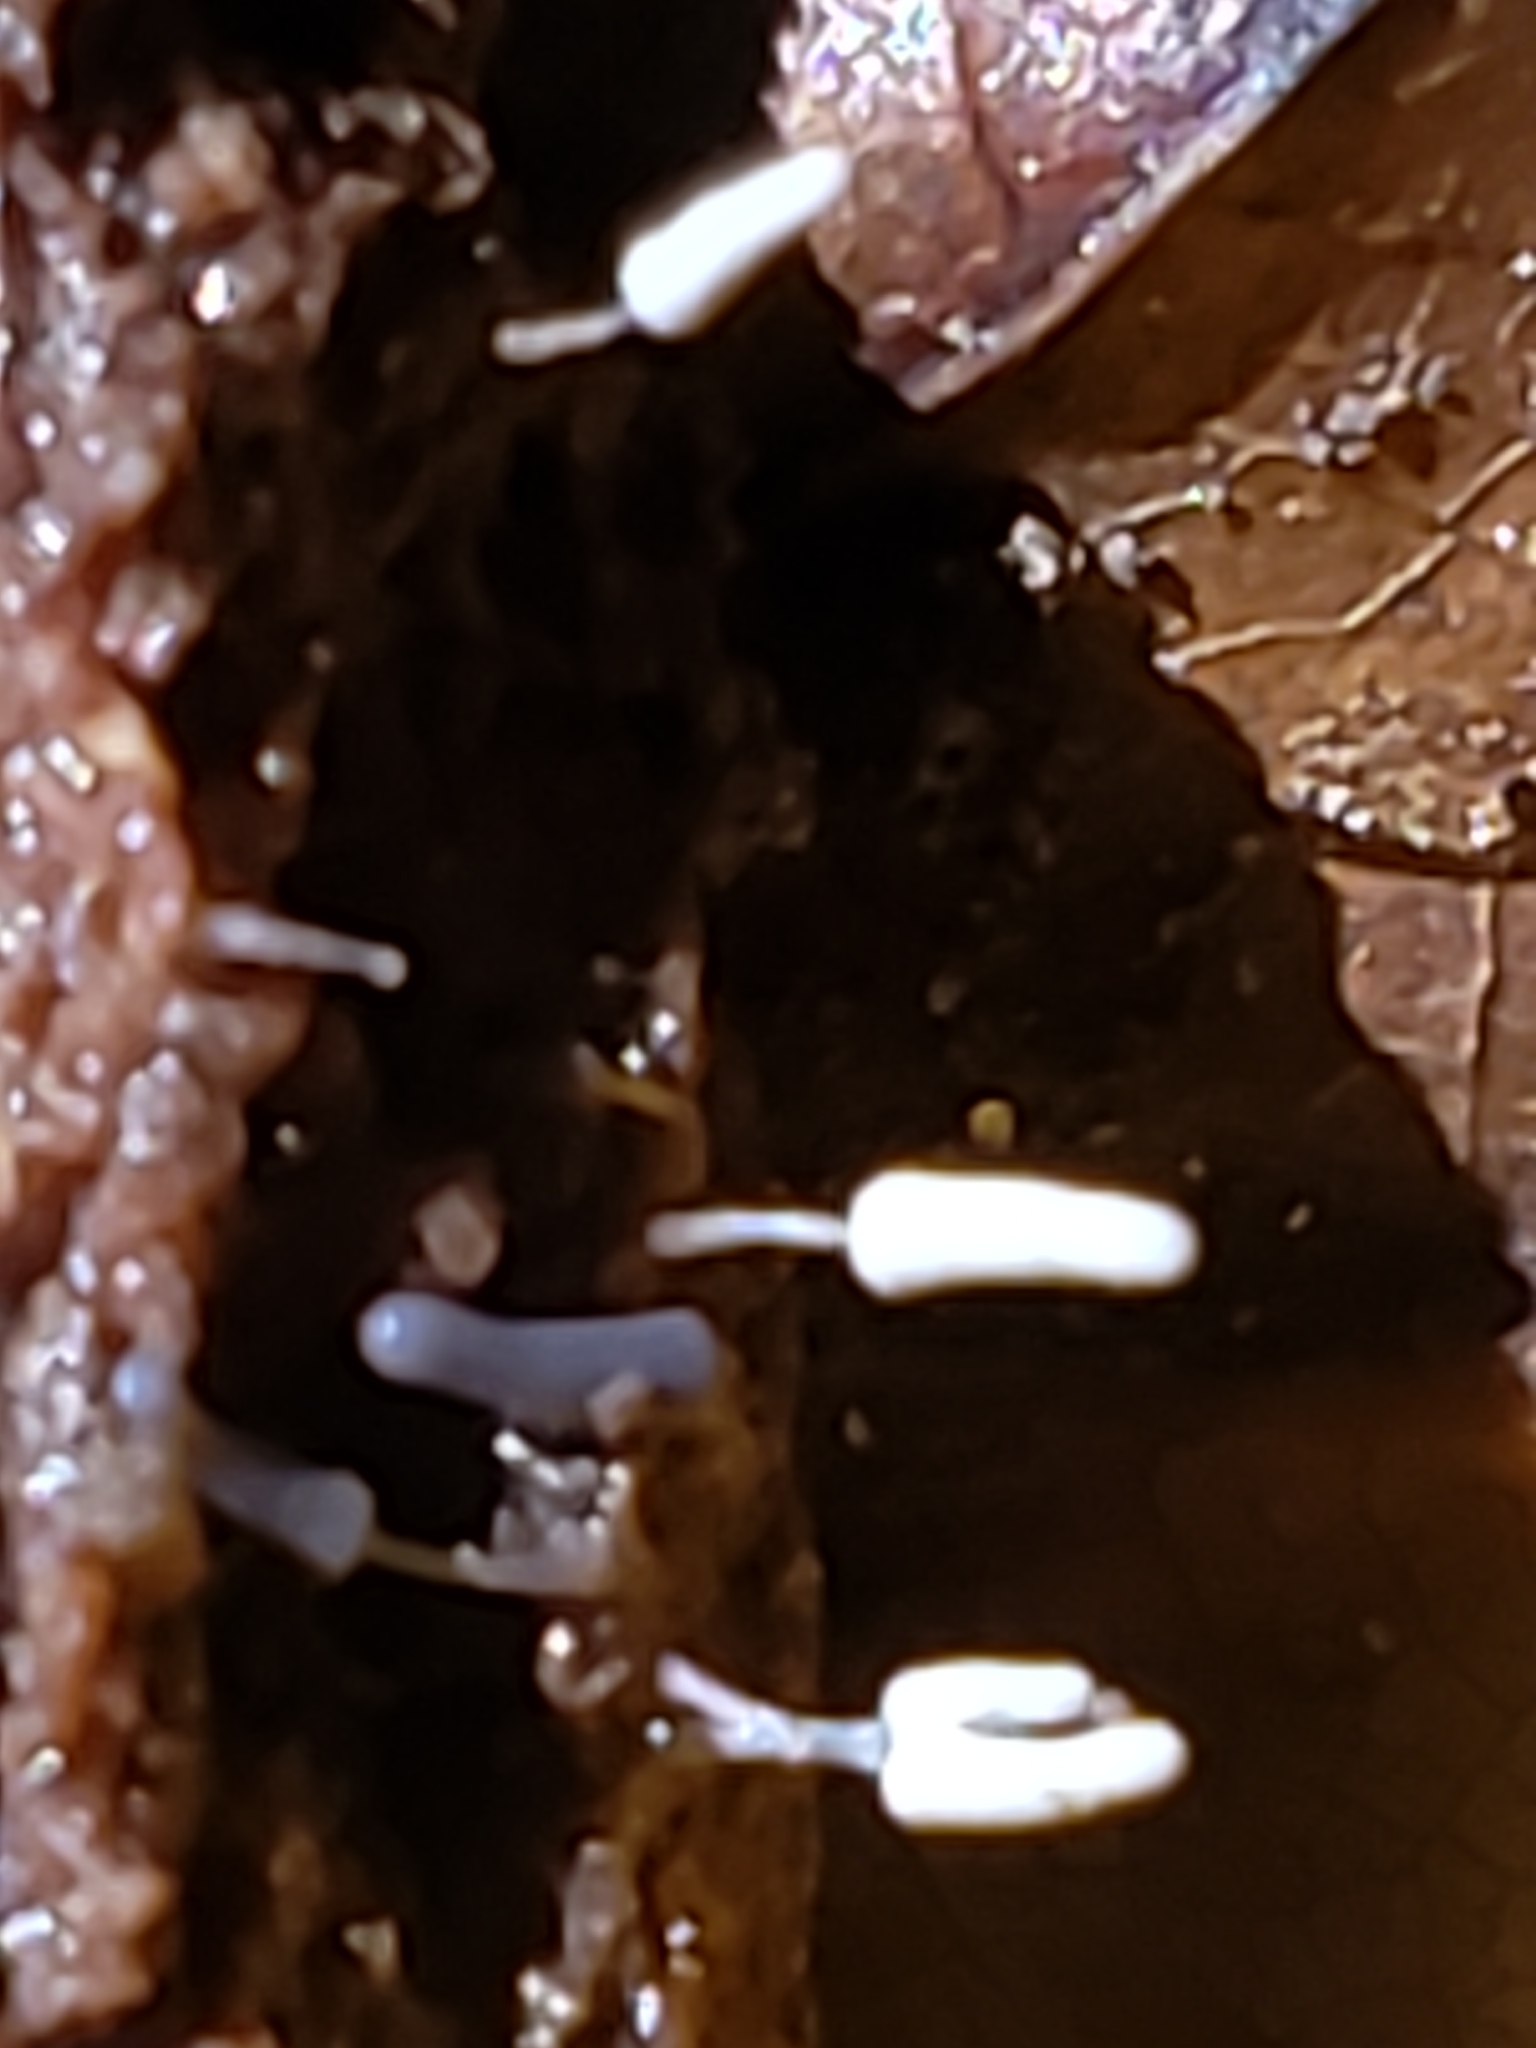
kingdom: Protozoa
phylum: Mycetozoa
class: Myxomycetes
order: Trichiales
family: Arcyriaceae
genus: Arcyria
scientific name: Arcyria cinerea
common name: White carnival candy slime mold
